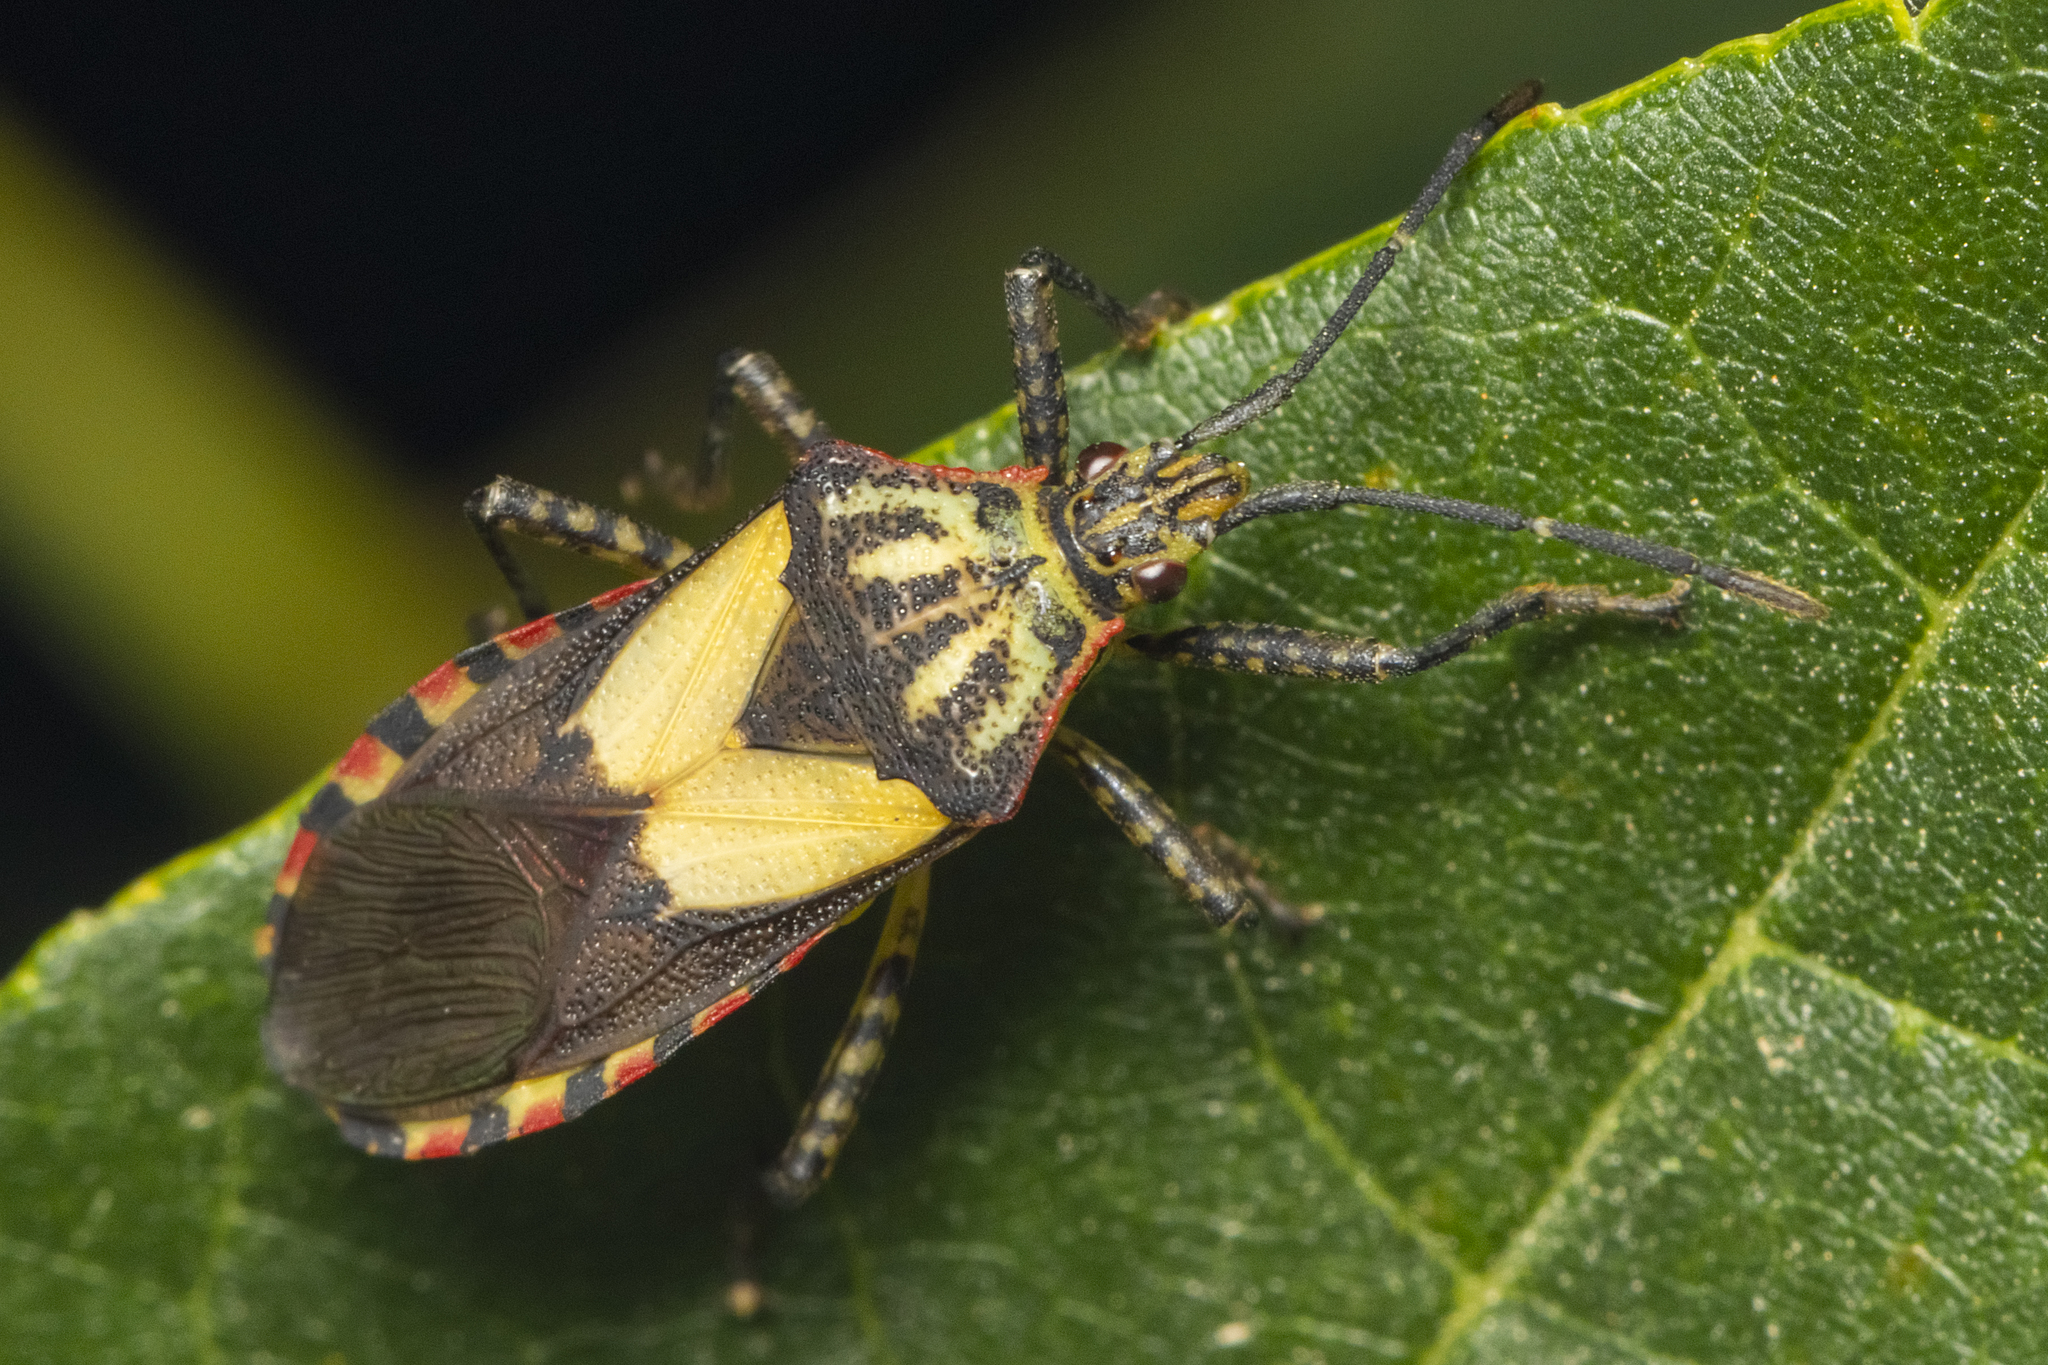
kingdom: Animalia
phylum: Arthropoda
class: Insecta
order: Hemiptera
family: Coreidae
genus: Acidomeria
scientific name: Acidomeria cincticornis
